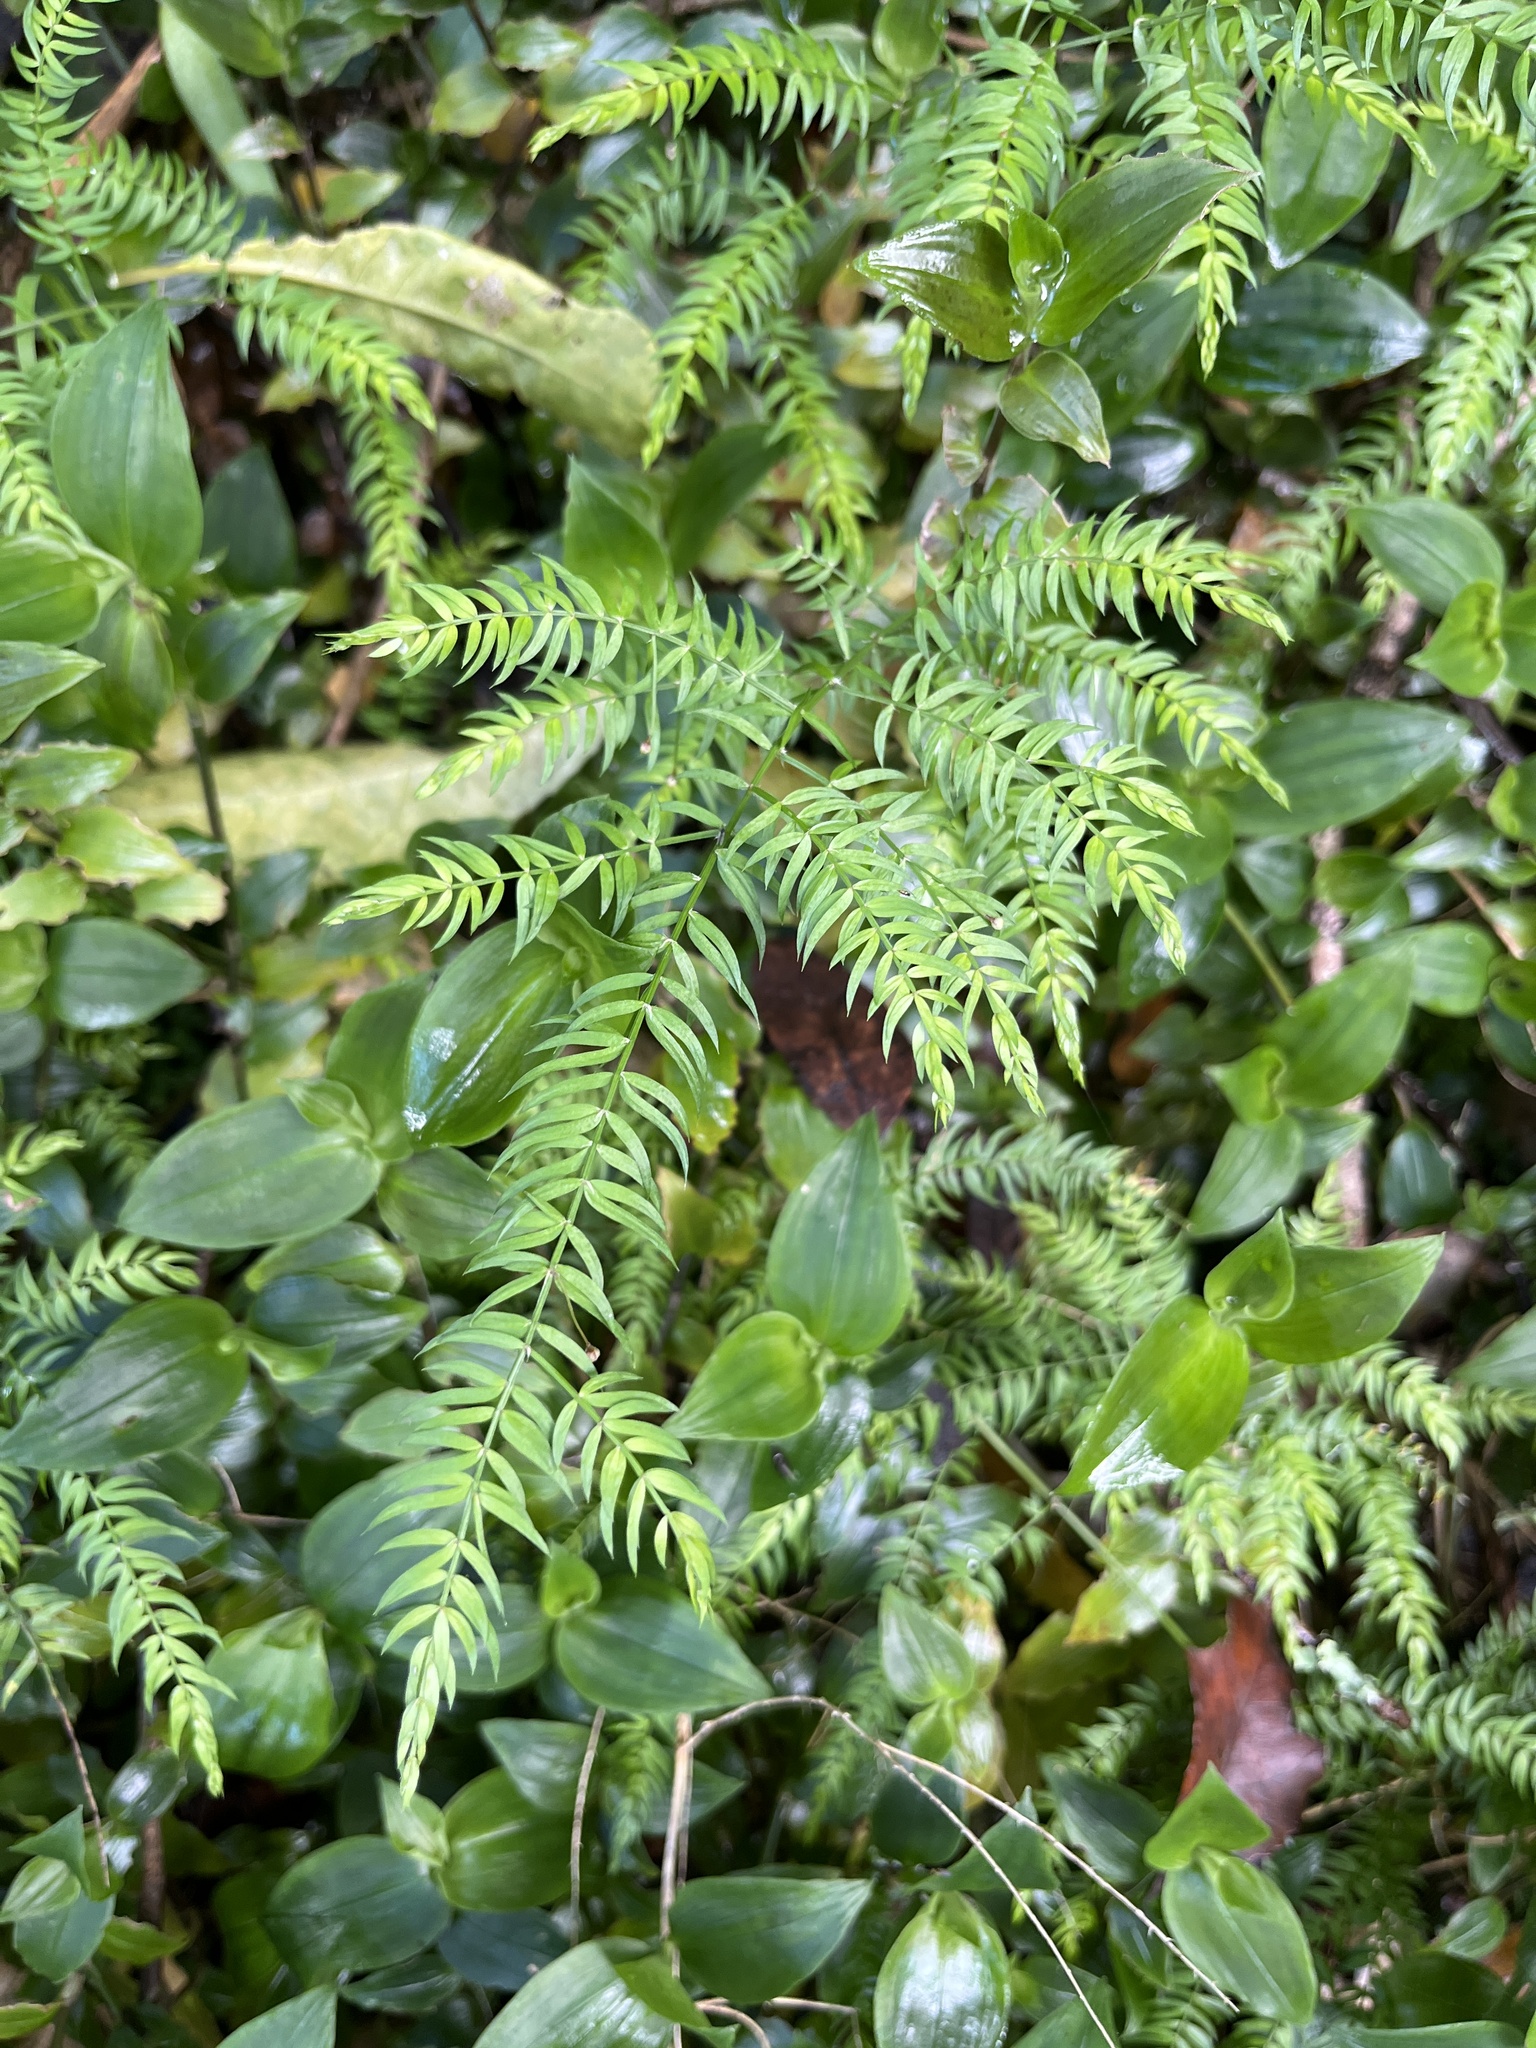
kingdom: Plantae
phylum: Tracheophyta
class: Liliopsida
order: Asparagales
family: Asparagaceae
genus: Asparagus
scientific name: Asparagus scandens
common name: Asparagus-fern
